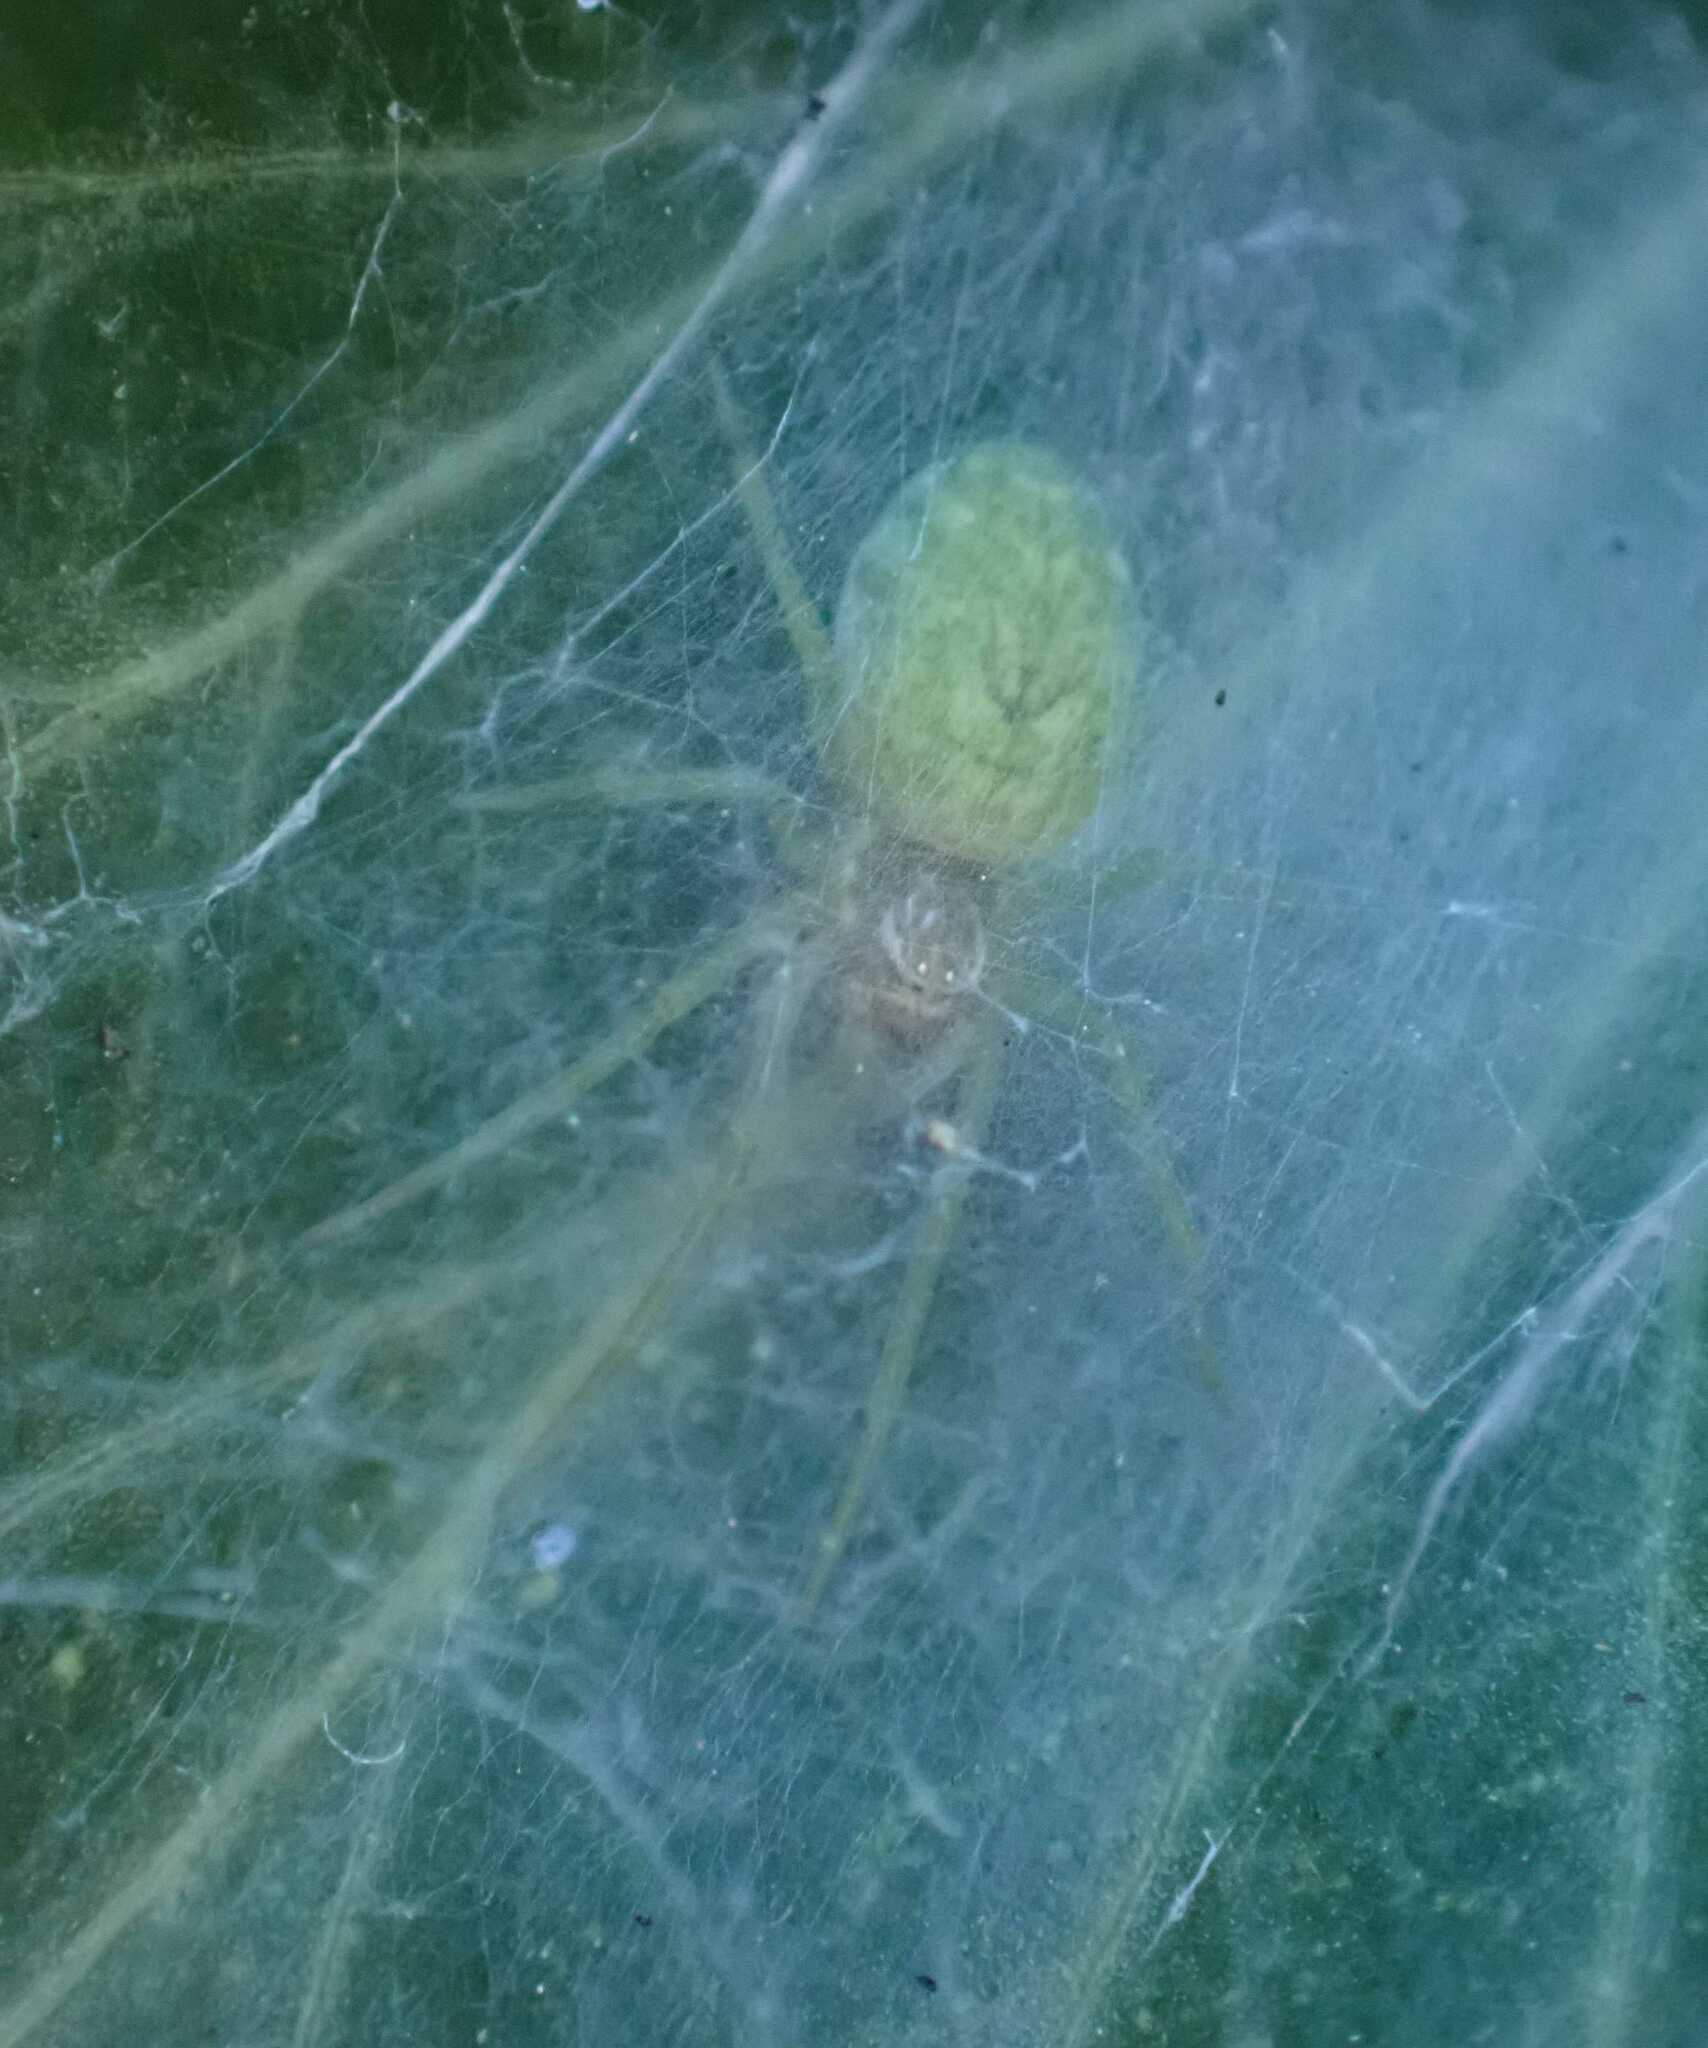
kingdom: Animalia
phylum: Arthropoda
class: Arachnida
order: Araneae
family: Dictynidae
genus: Nigma
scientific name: Nigma walckenaeri
